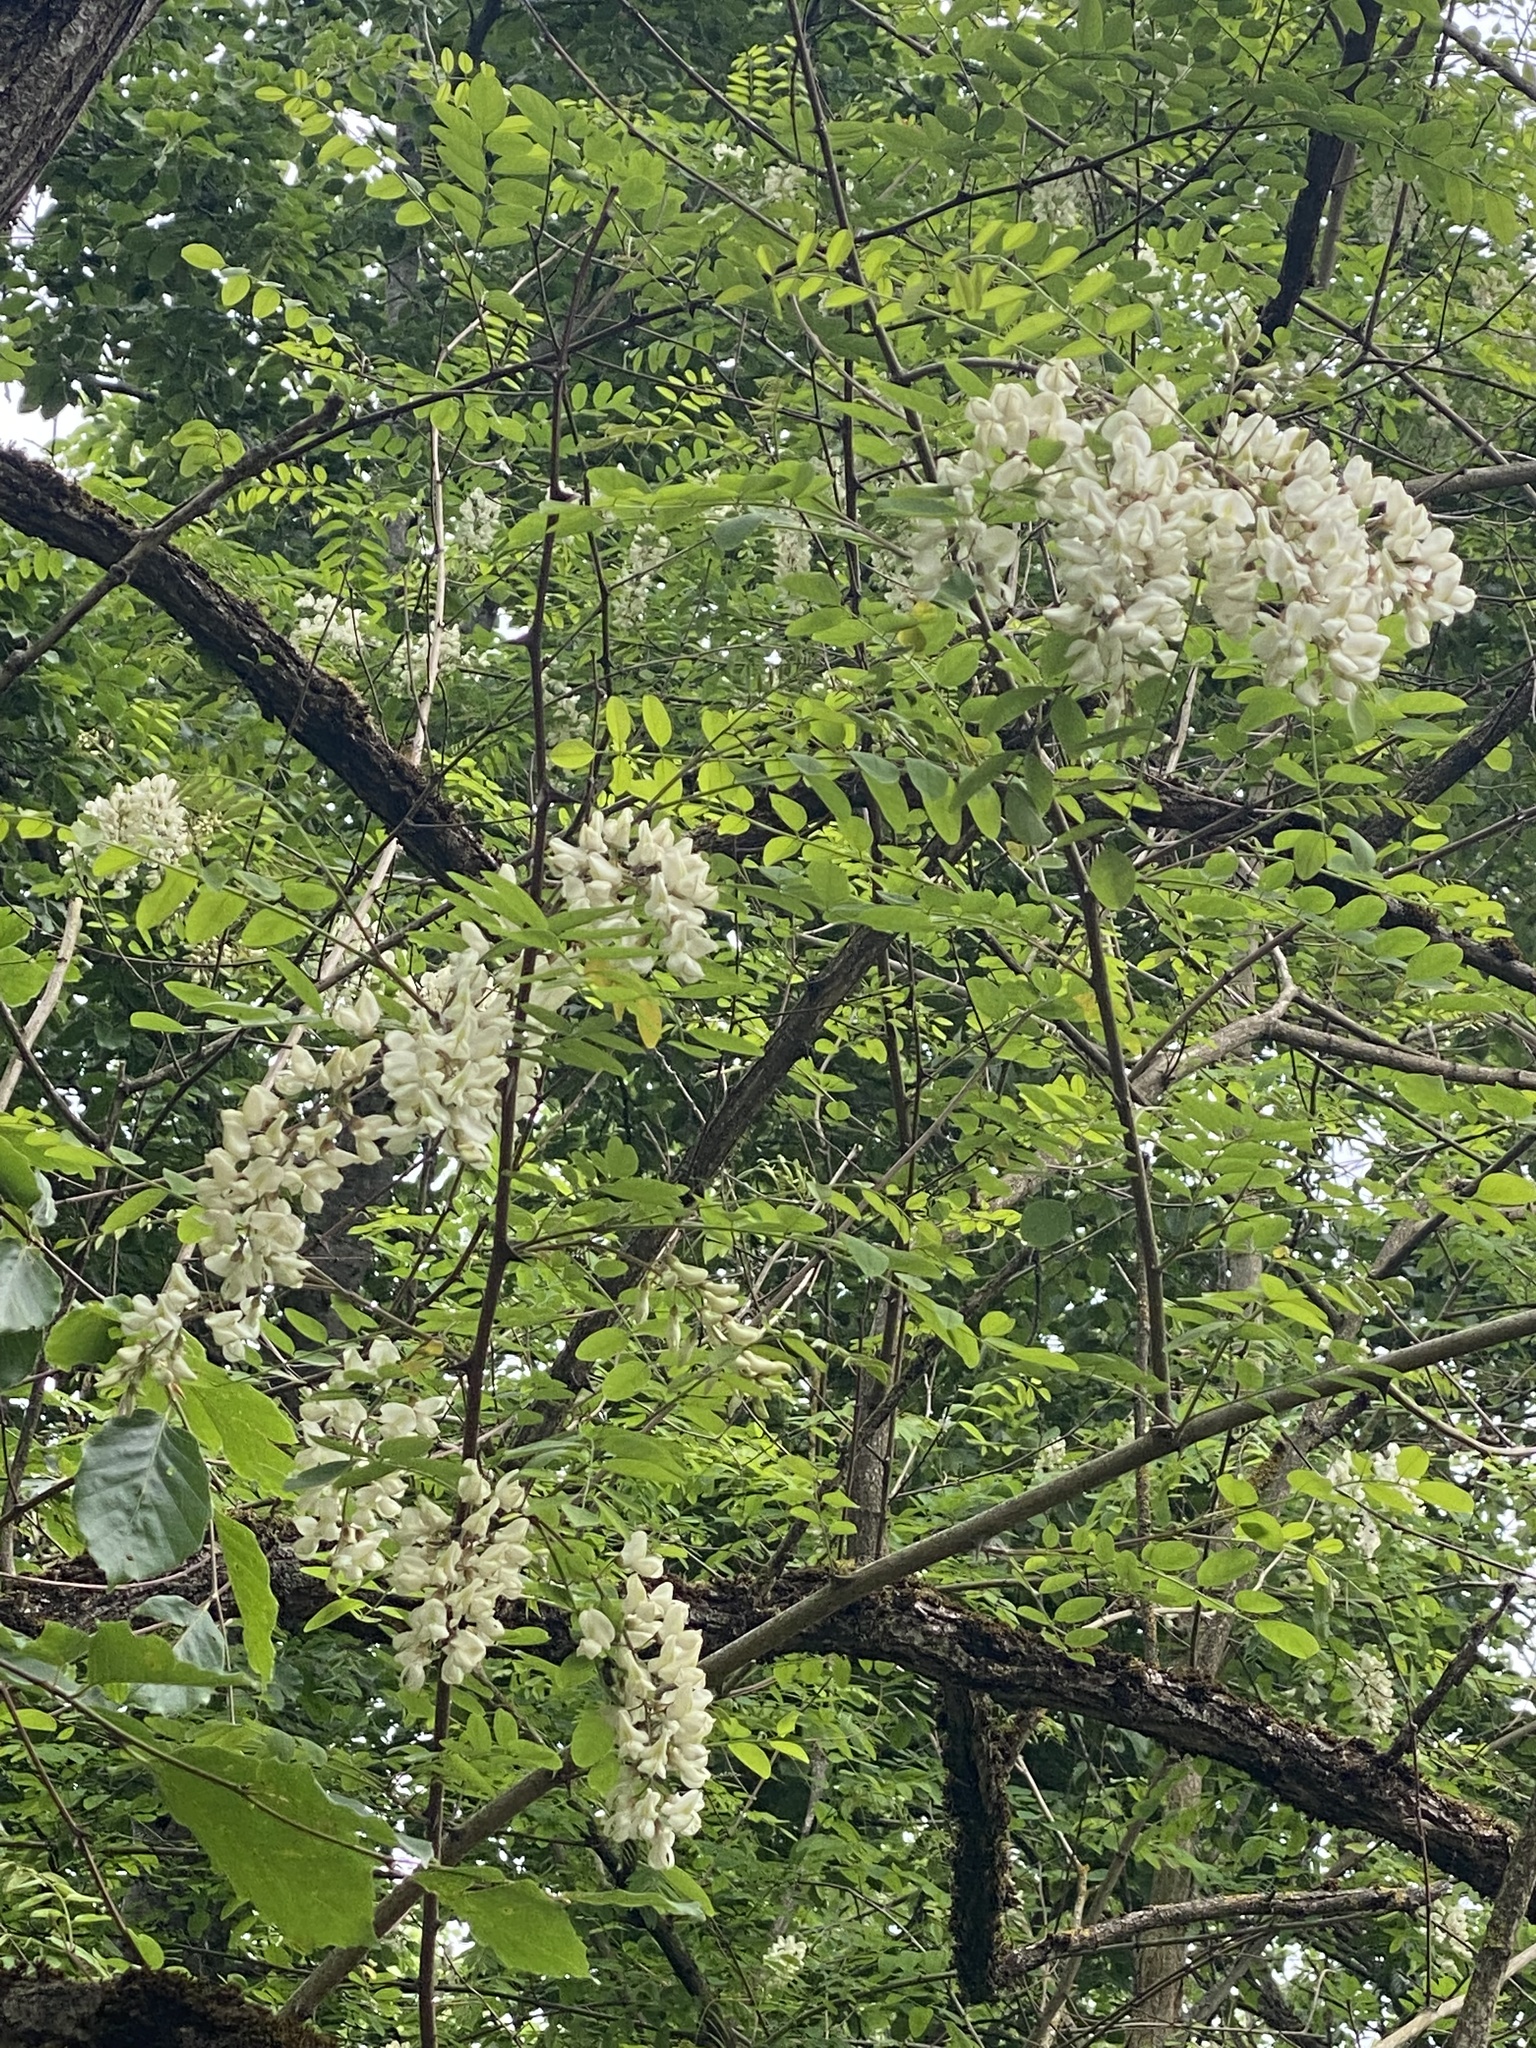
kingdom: Plantae
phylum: Tracheophyta
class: Magnoliopsida
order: Fabales
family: Fabaceae
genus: Robinia
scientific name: Robinia pseudoacacia
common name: Black locust
